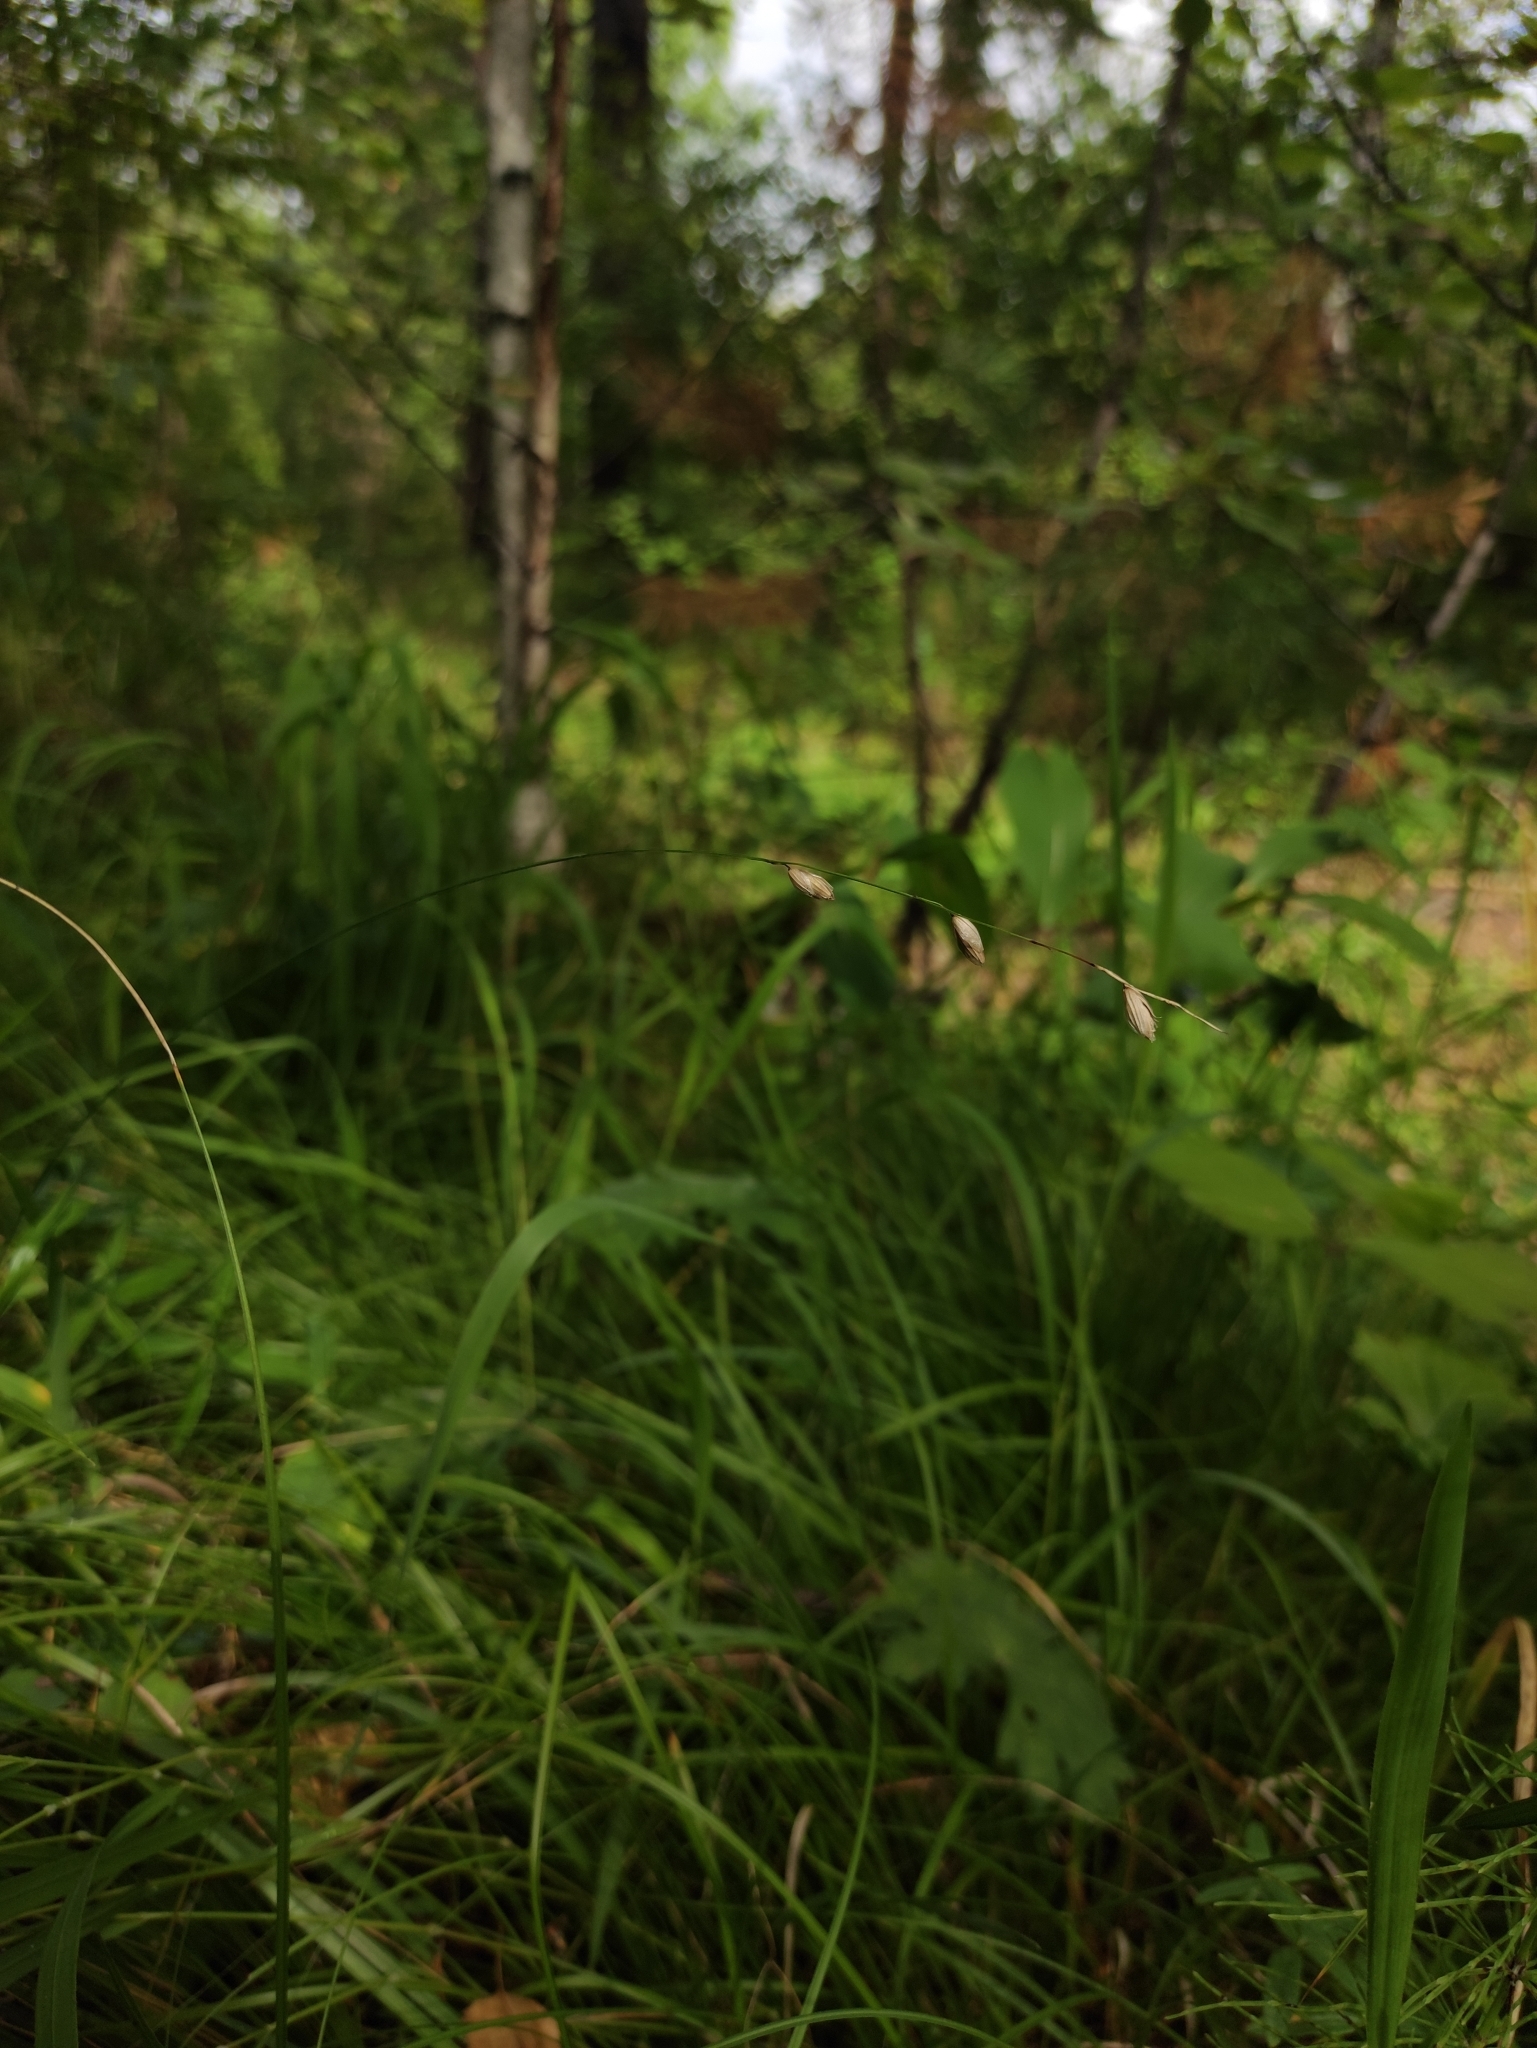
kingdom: Plantae
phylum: Tracheophyta
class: Liliopsida
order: Poales
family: Poaceae
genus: Melica
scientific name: Melica nutans
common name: Mountain melick
